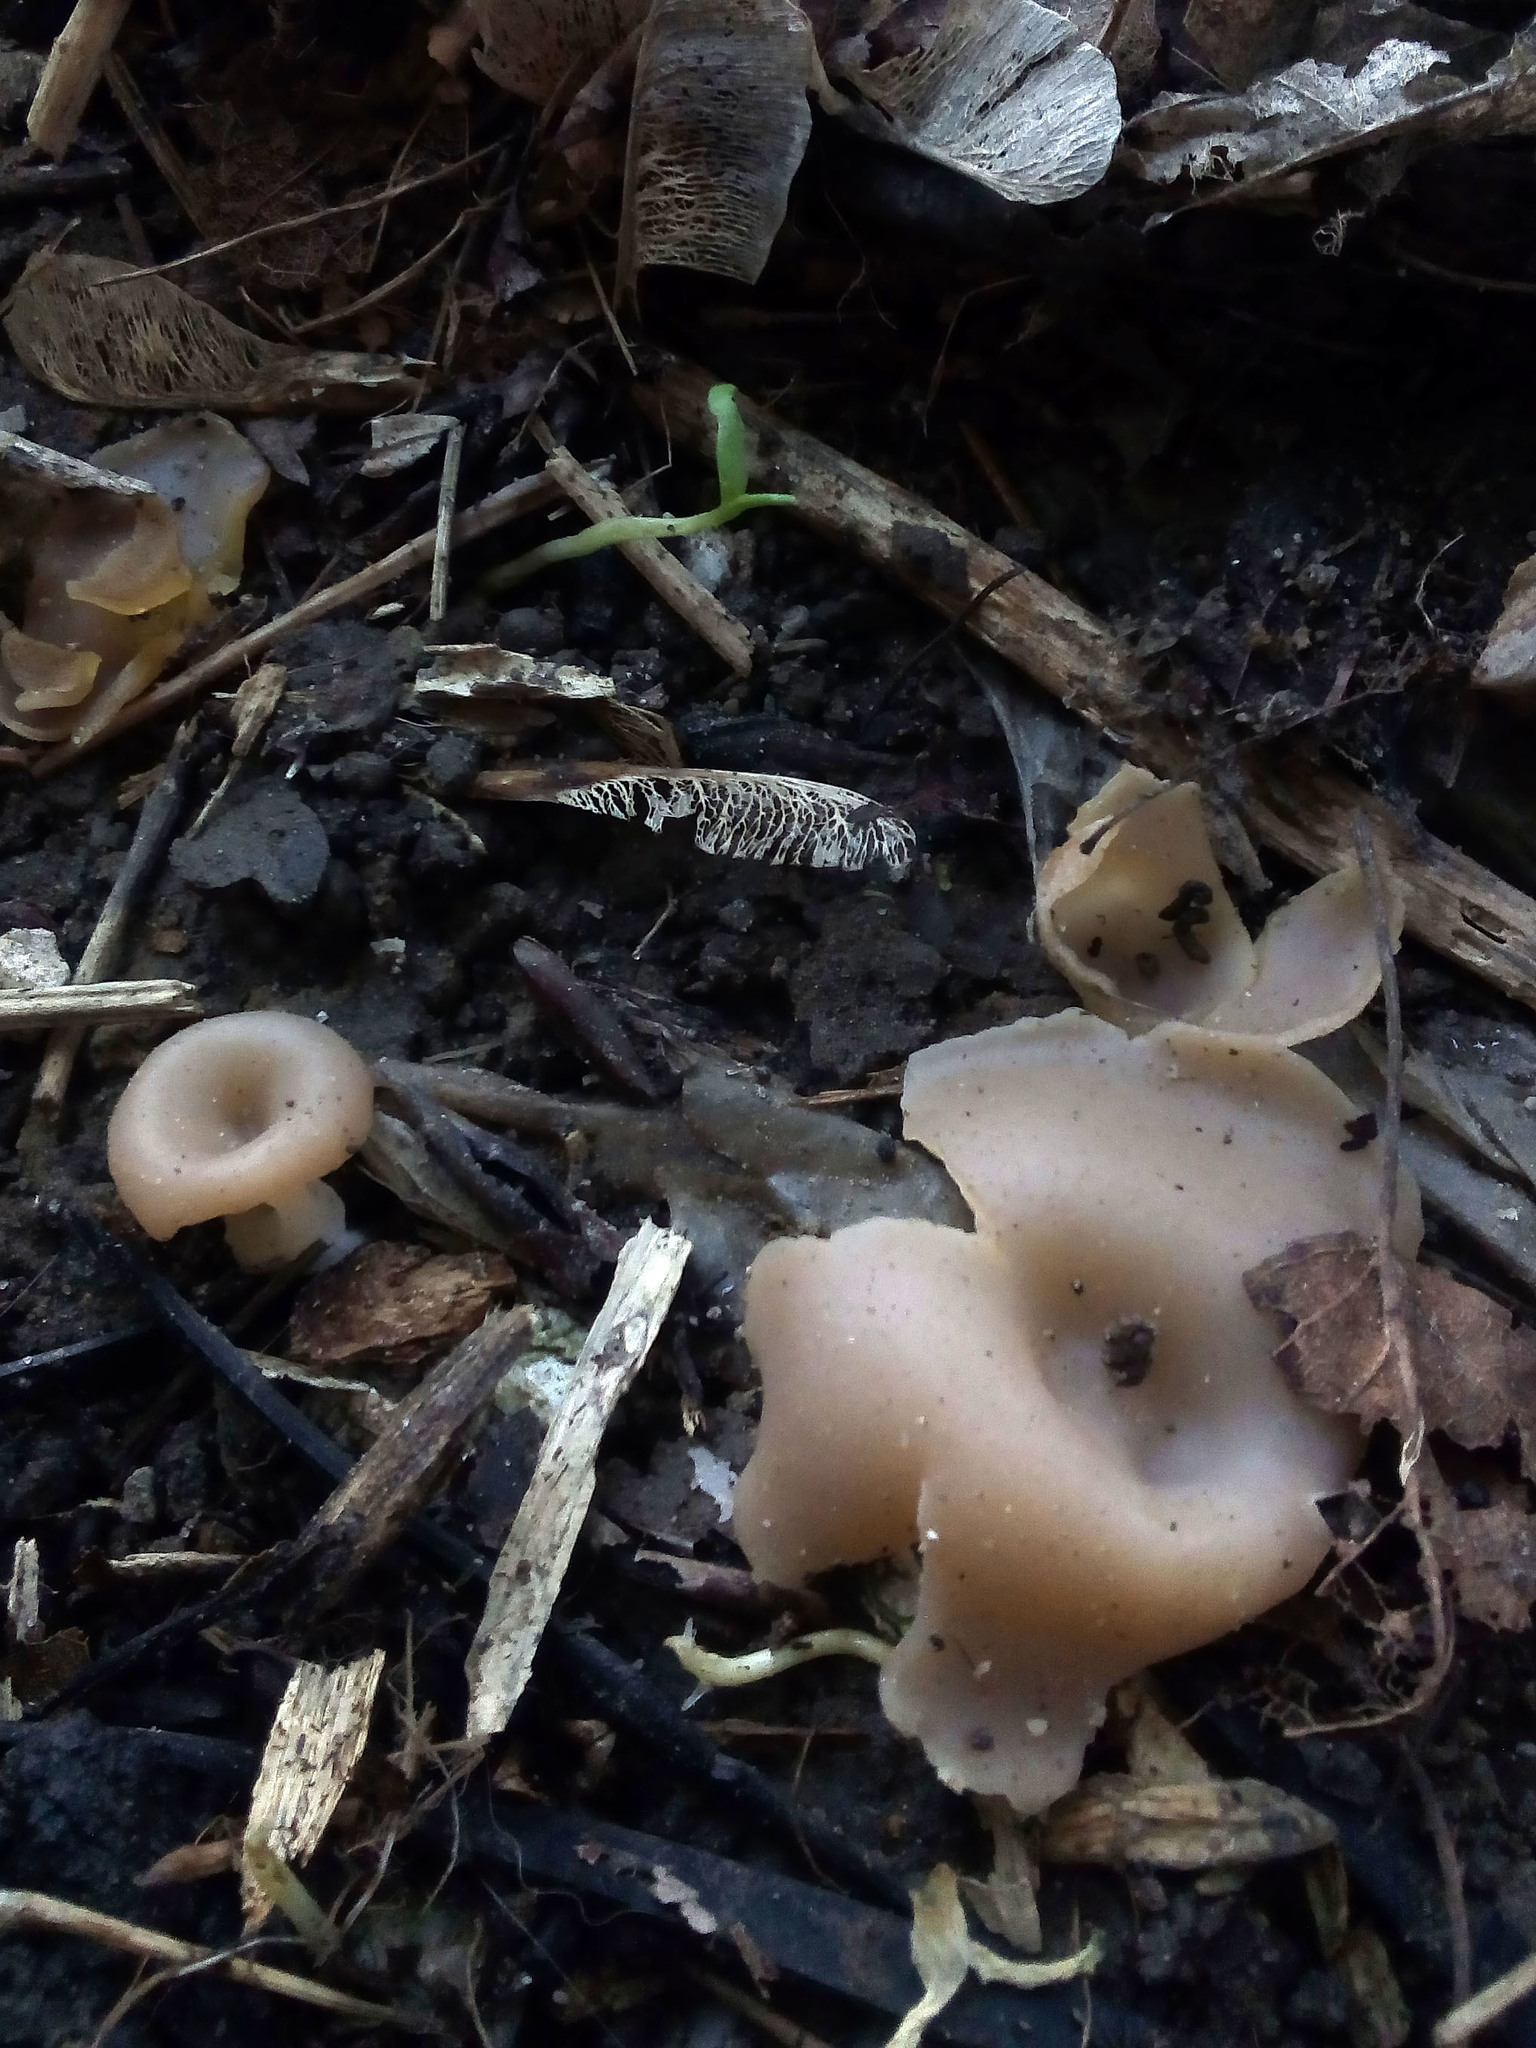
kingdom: Fungi
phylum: Ascomycota
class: Pezizomycetes
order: Pezizales
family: Pezizaceae
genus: Peziza
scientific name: Peziza varia
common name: Layered cup
